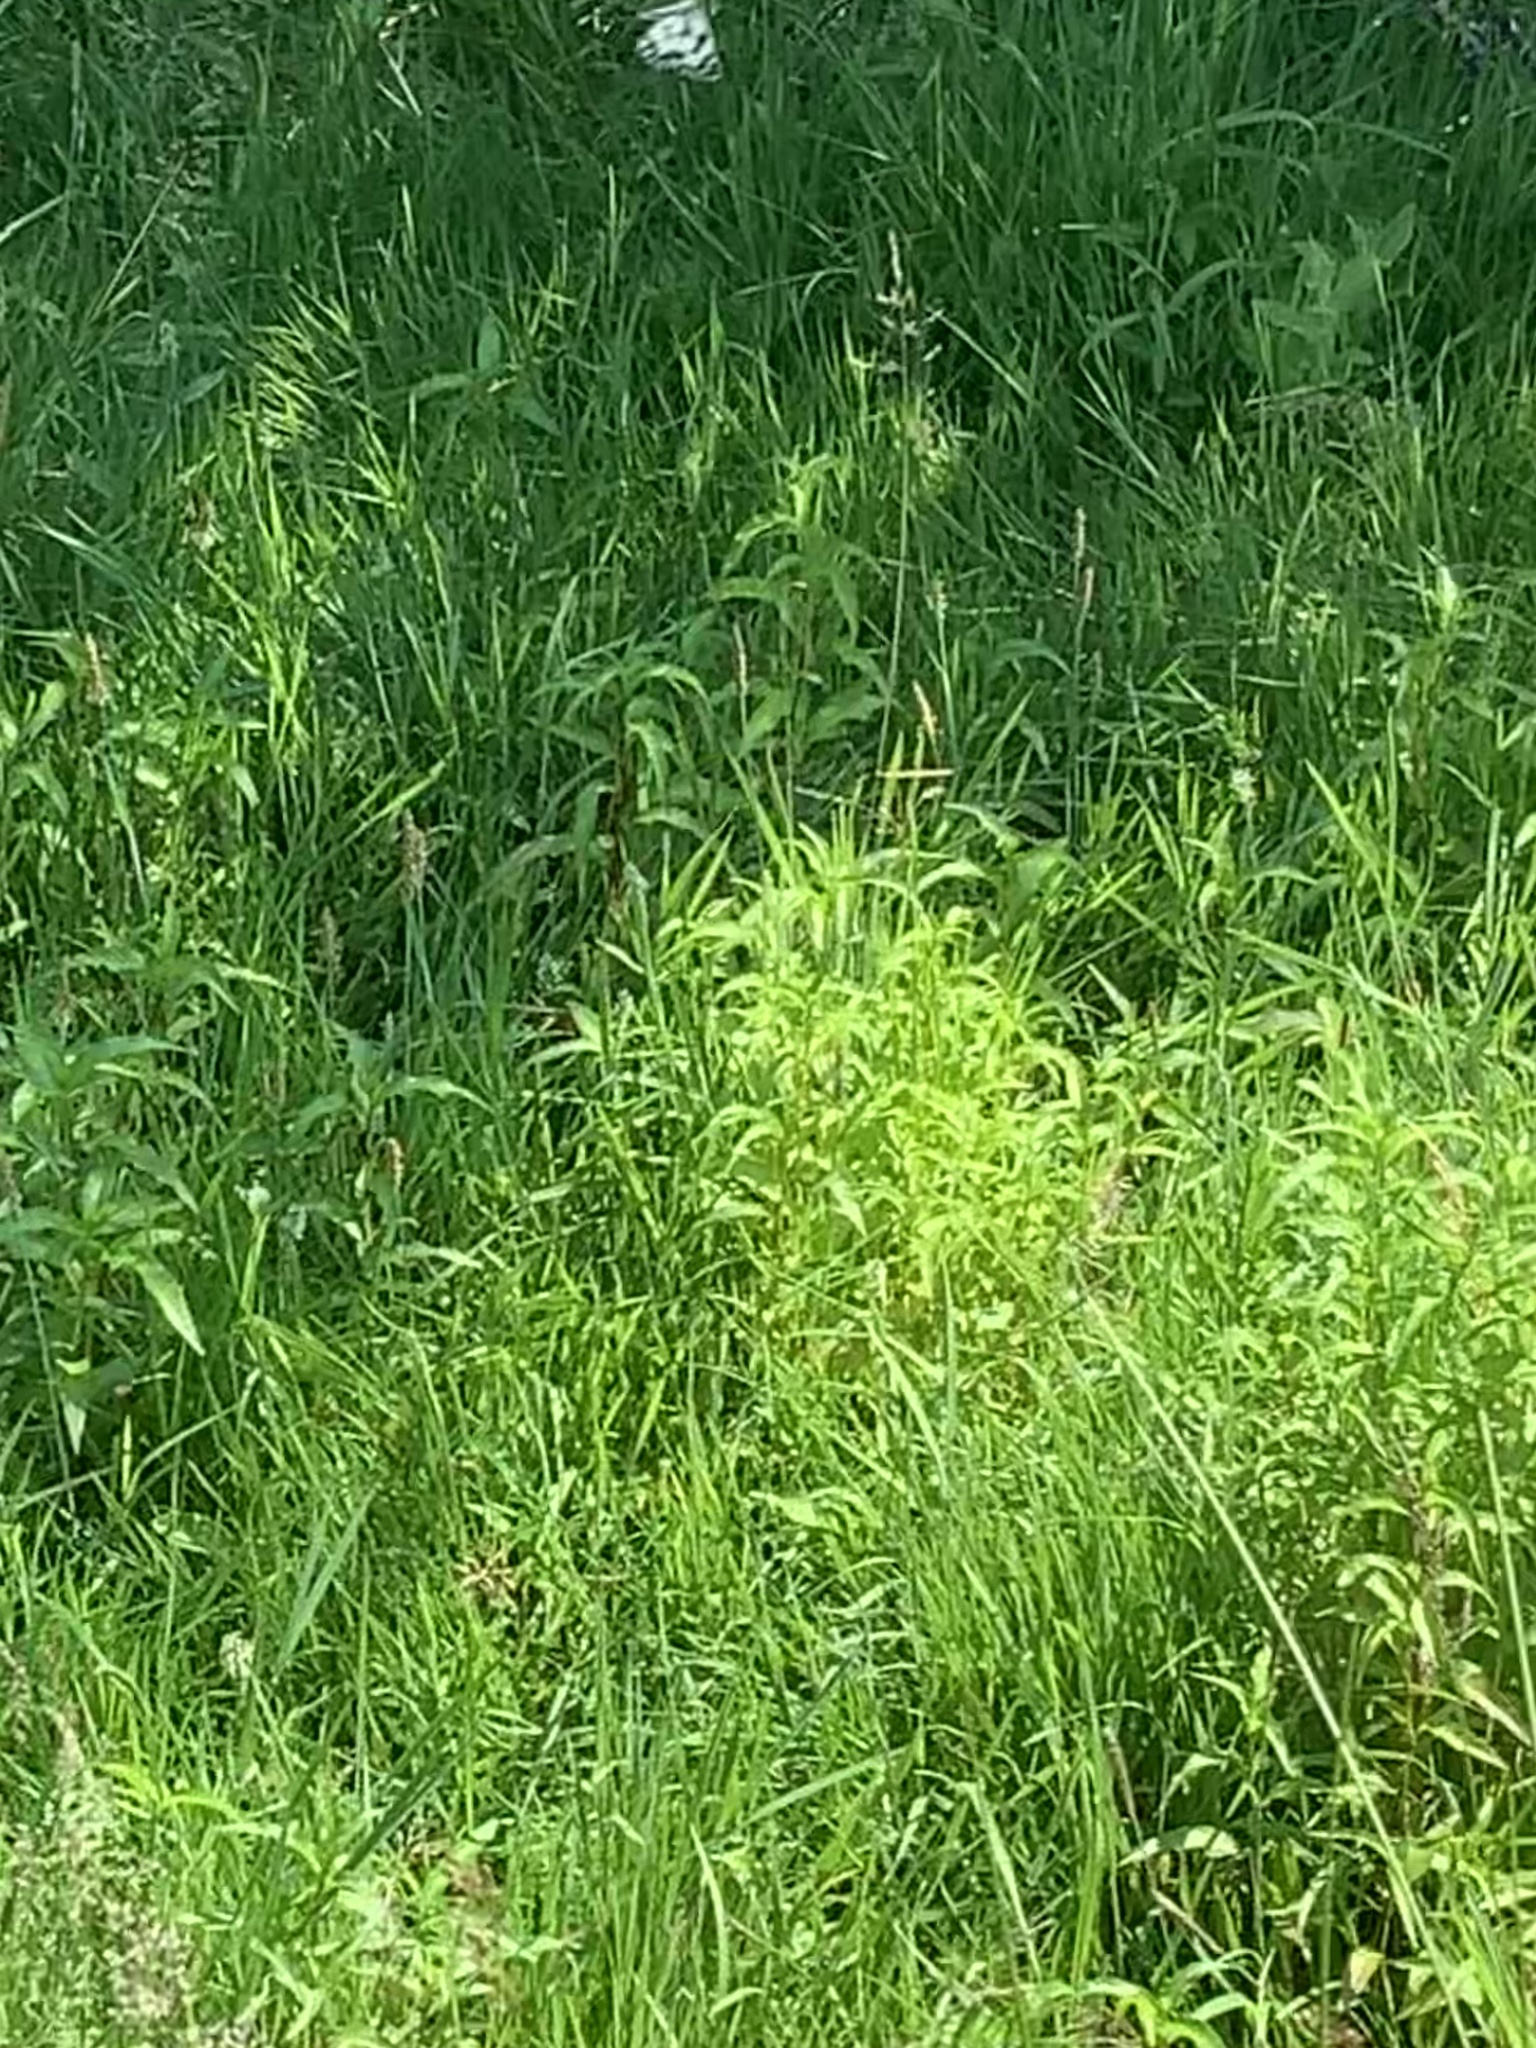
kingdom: Animalia
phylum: Arthropoda
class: Insecta
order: Lepidoptera
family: Nymphalidae
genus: Melanargia
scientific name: Melanargia galathea
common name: Marbled white
